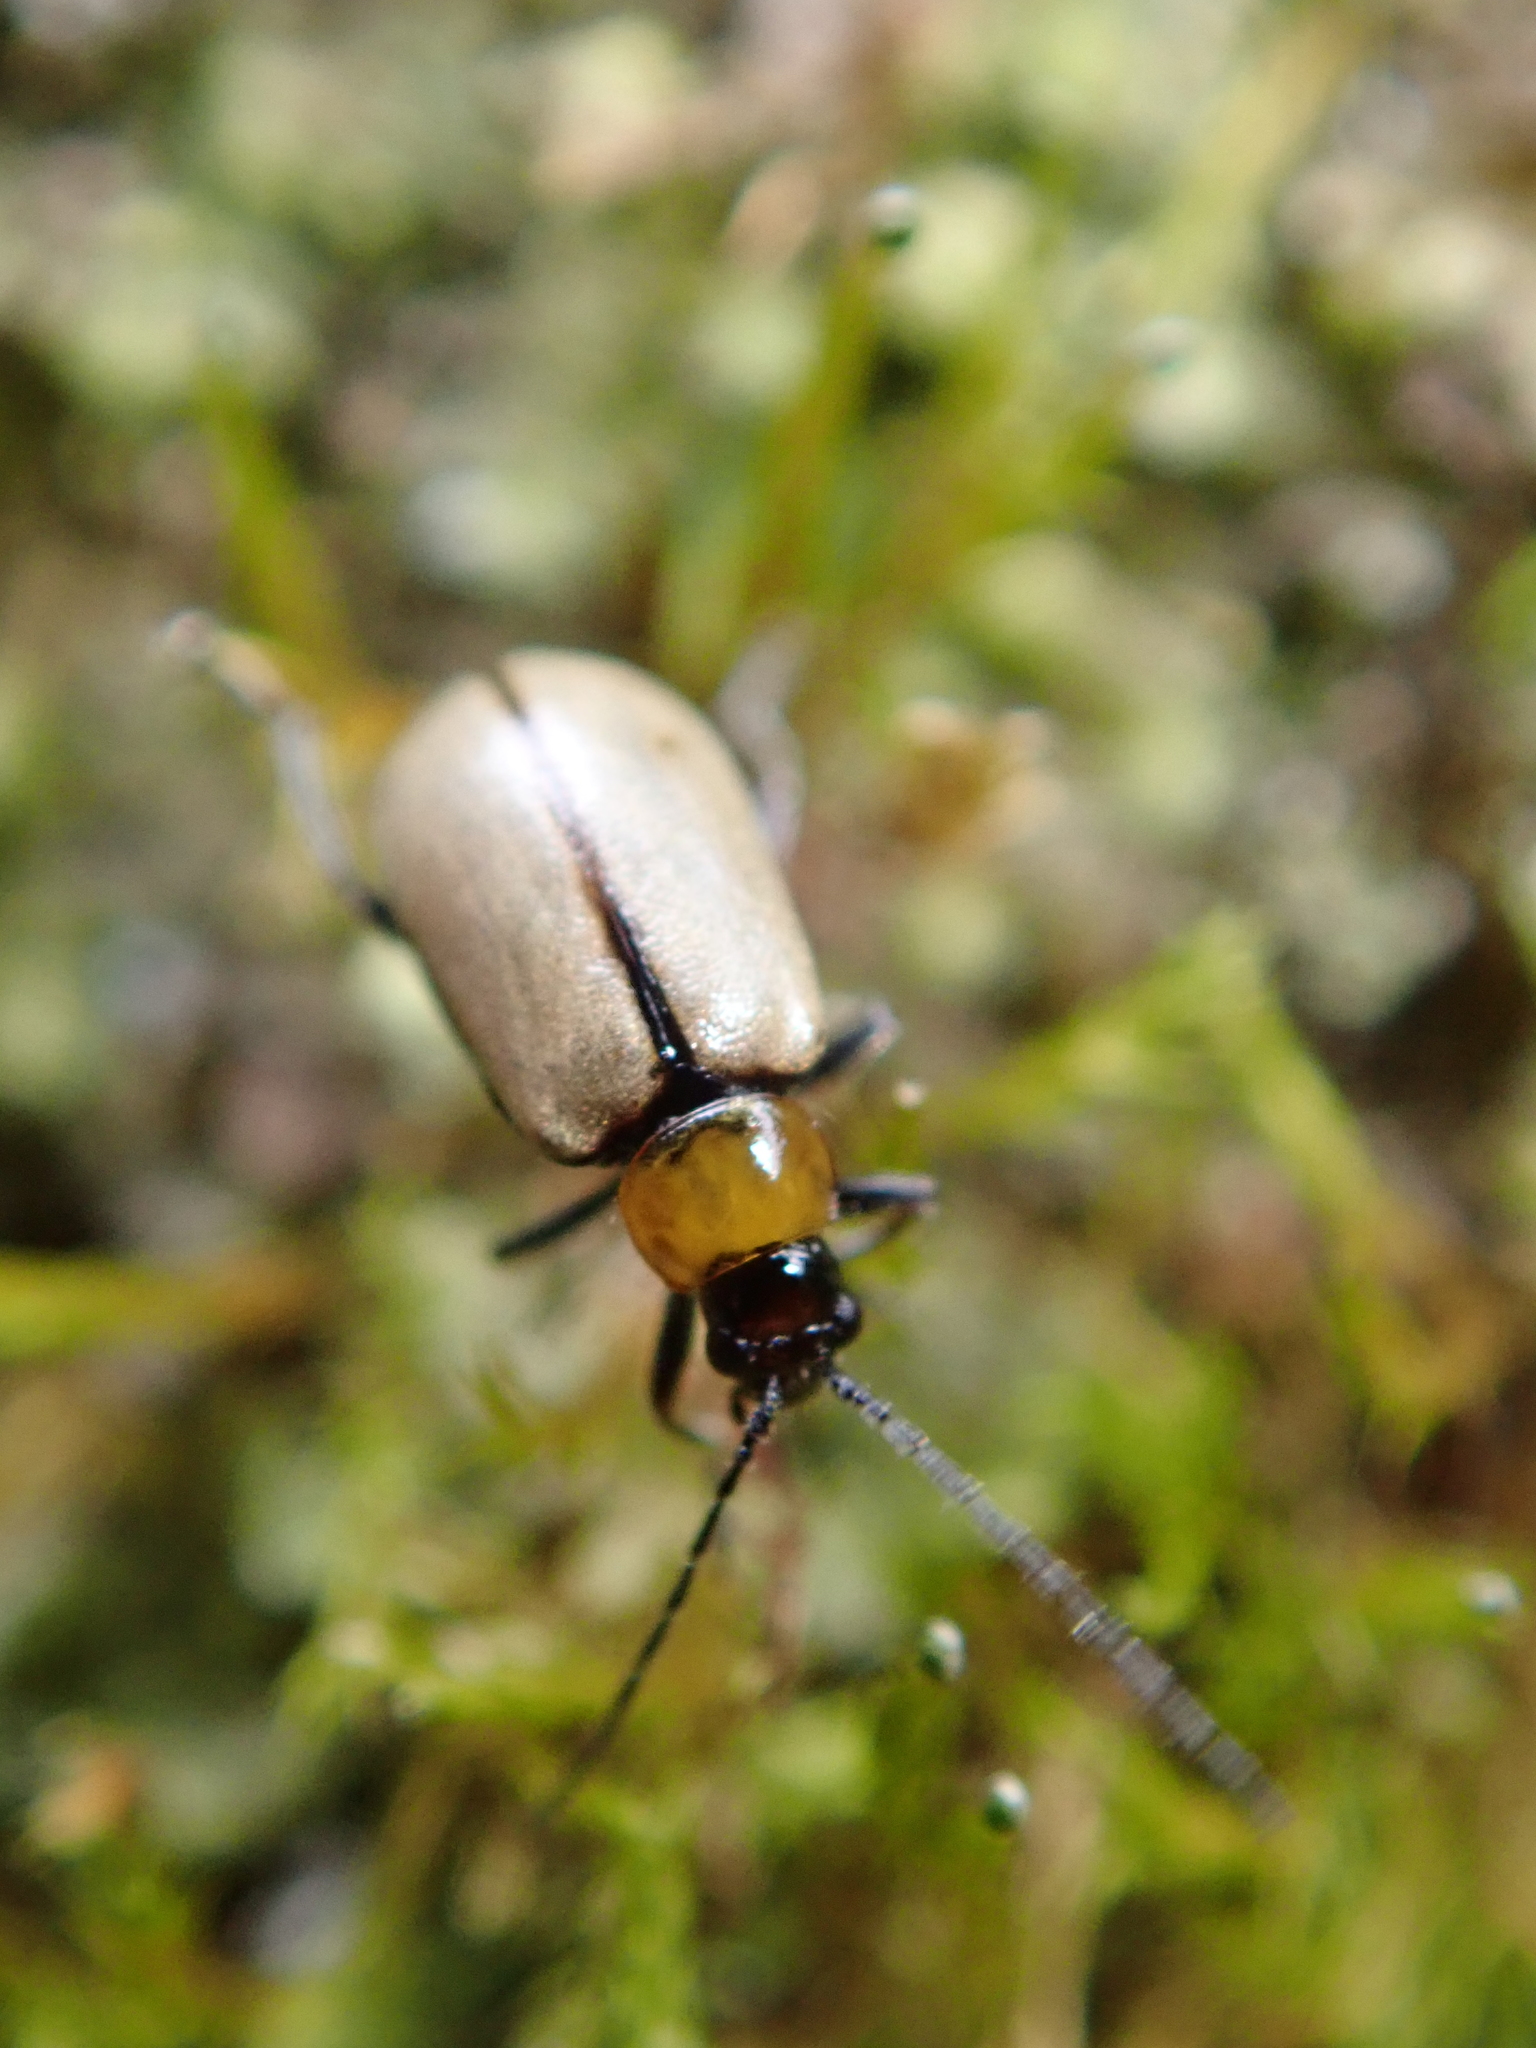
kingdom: Animalia
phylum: Arthropoda
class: Insecta
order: Coleoptera
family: Chrysomelidae
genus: Adoxia
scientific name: Adoxia
